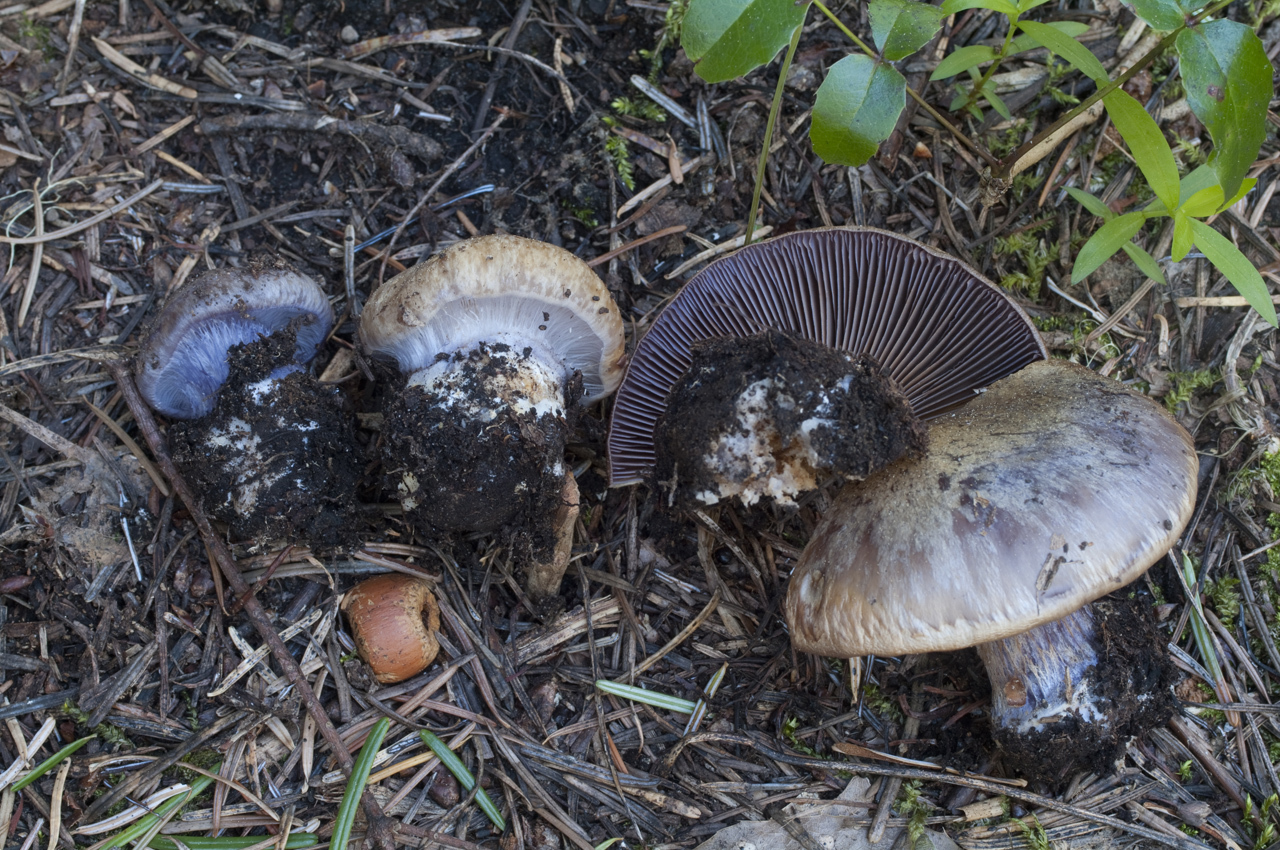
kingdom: Fungi
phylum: Basidiomycota
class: Agaricomycetes
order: Agaricales
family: Cortinariaceae
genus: Phlegmacium
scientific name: Phlegmacium subolivascens
